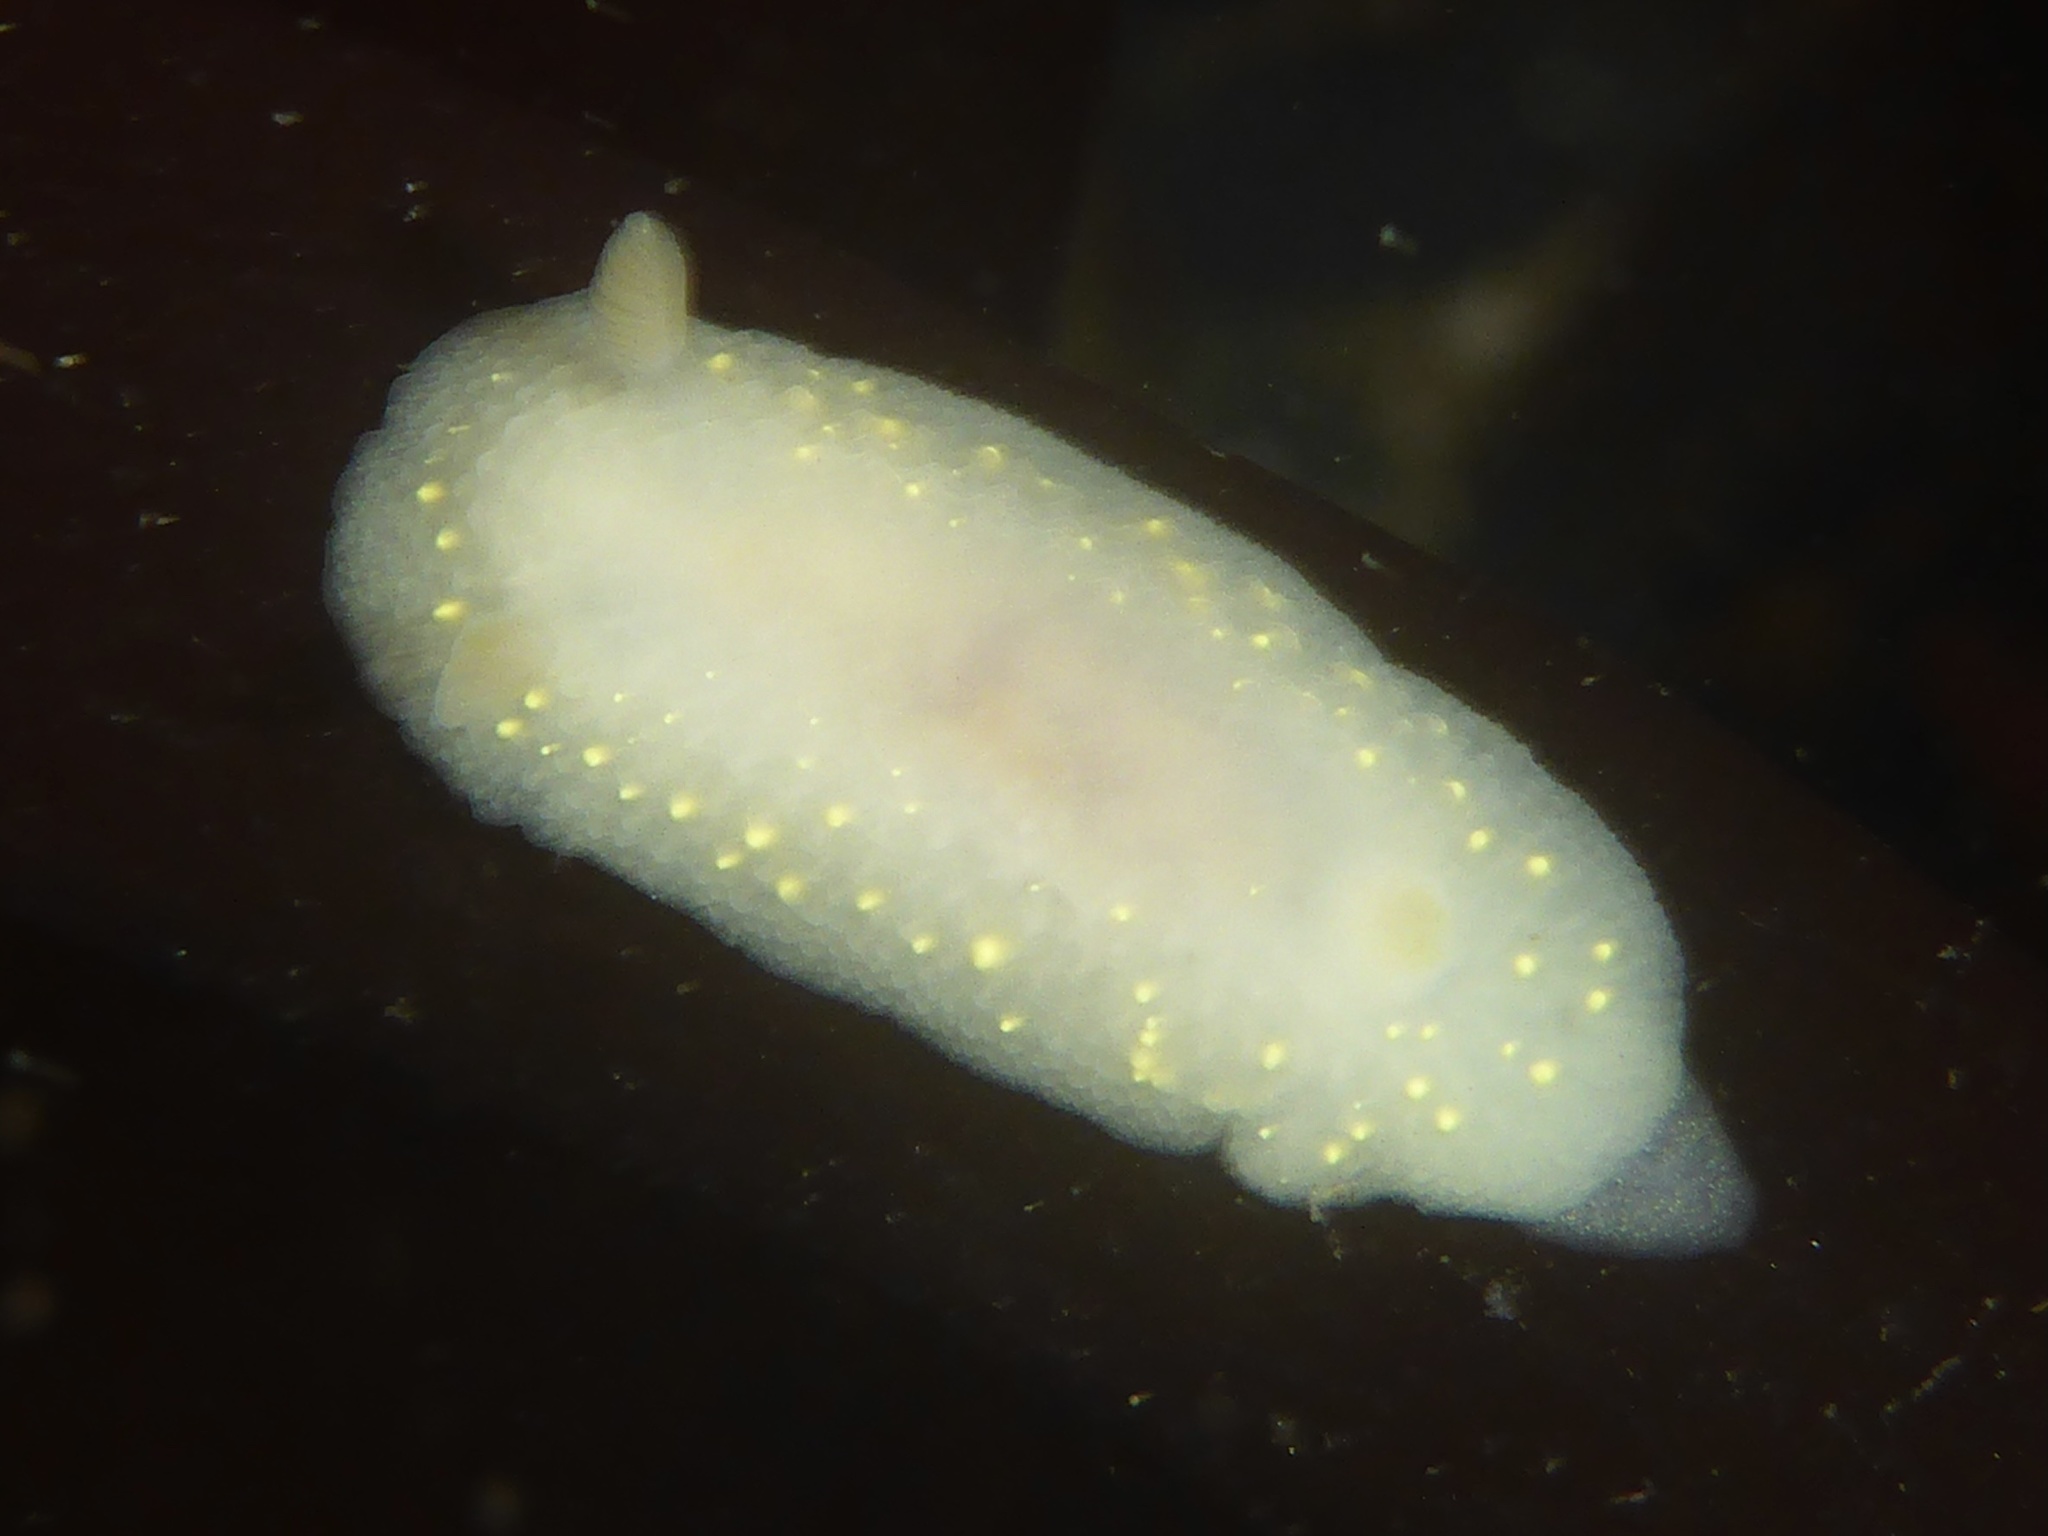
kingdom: Animalia
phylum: Mollusca
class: Gastropoda
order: Nudibranchia
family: Cadlinidae
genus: Cadlina
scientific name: Cadlina modesta
